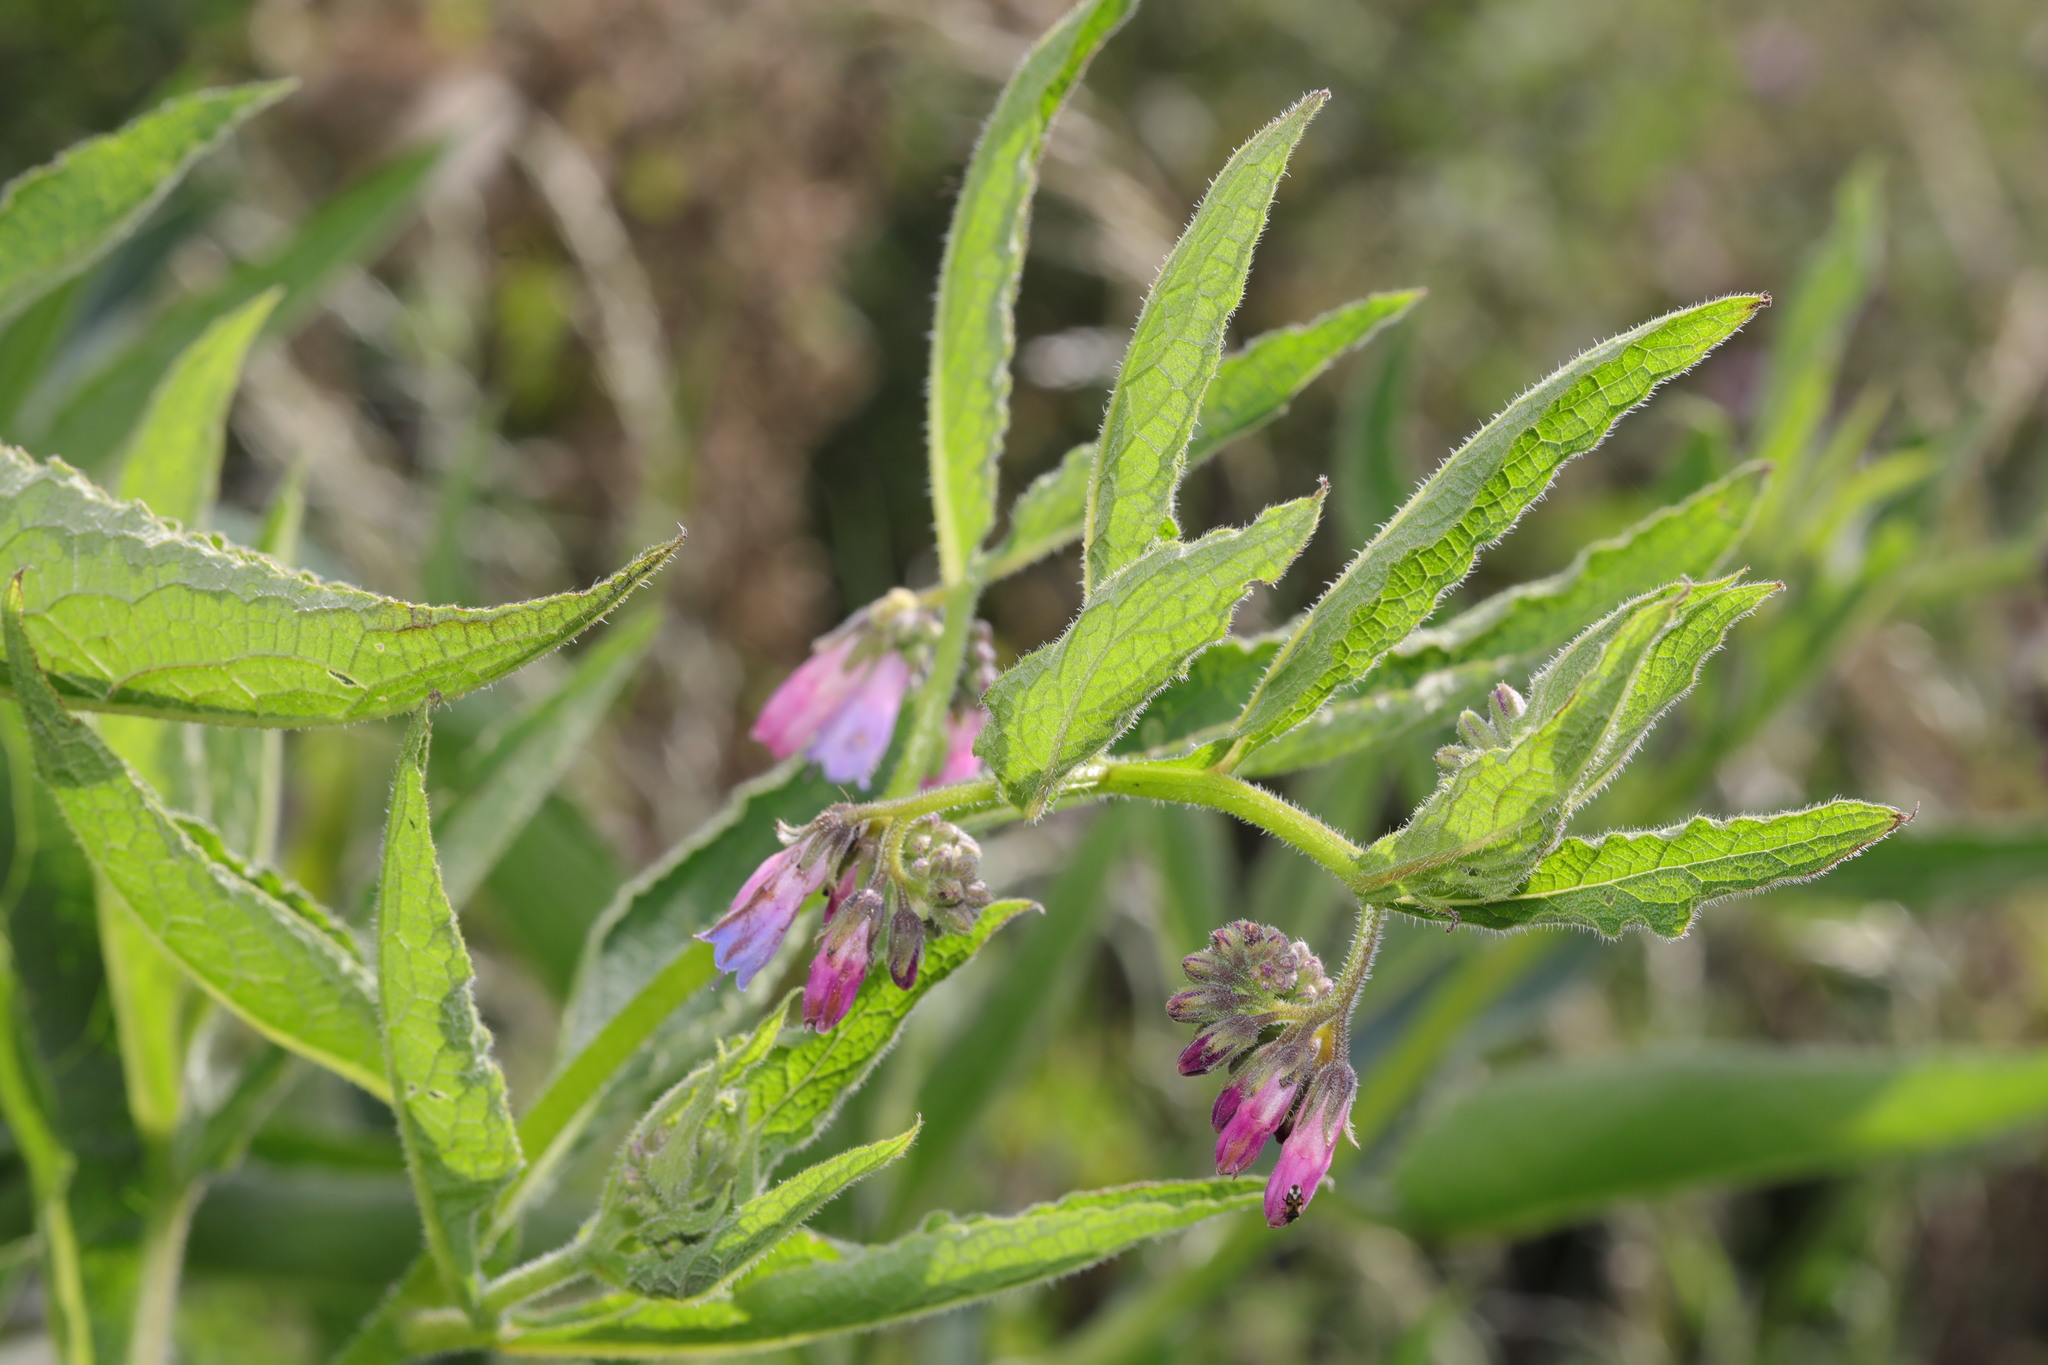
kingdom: Plantae
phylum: Tracheophyta
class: Magnoliopsida
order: Boraginales
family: Boraginaceae
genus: Symphytum
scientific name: Symphytum officinale
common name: Common comfrey
